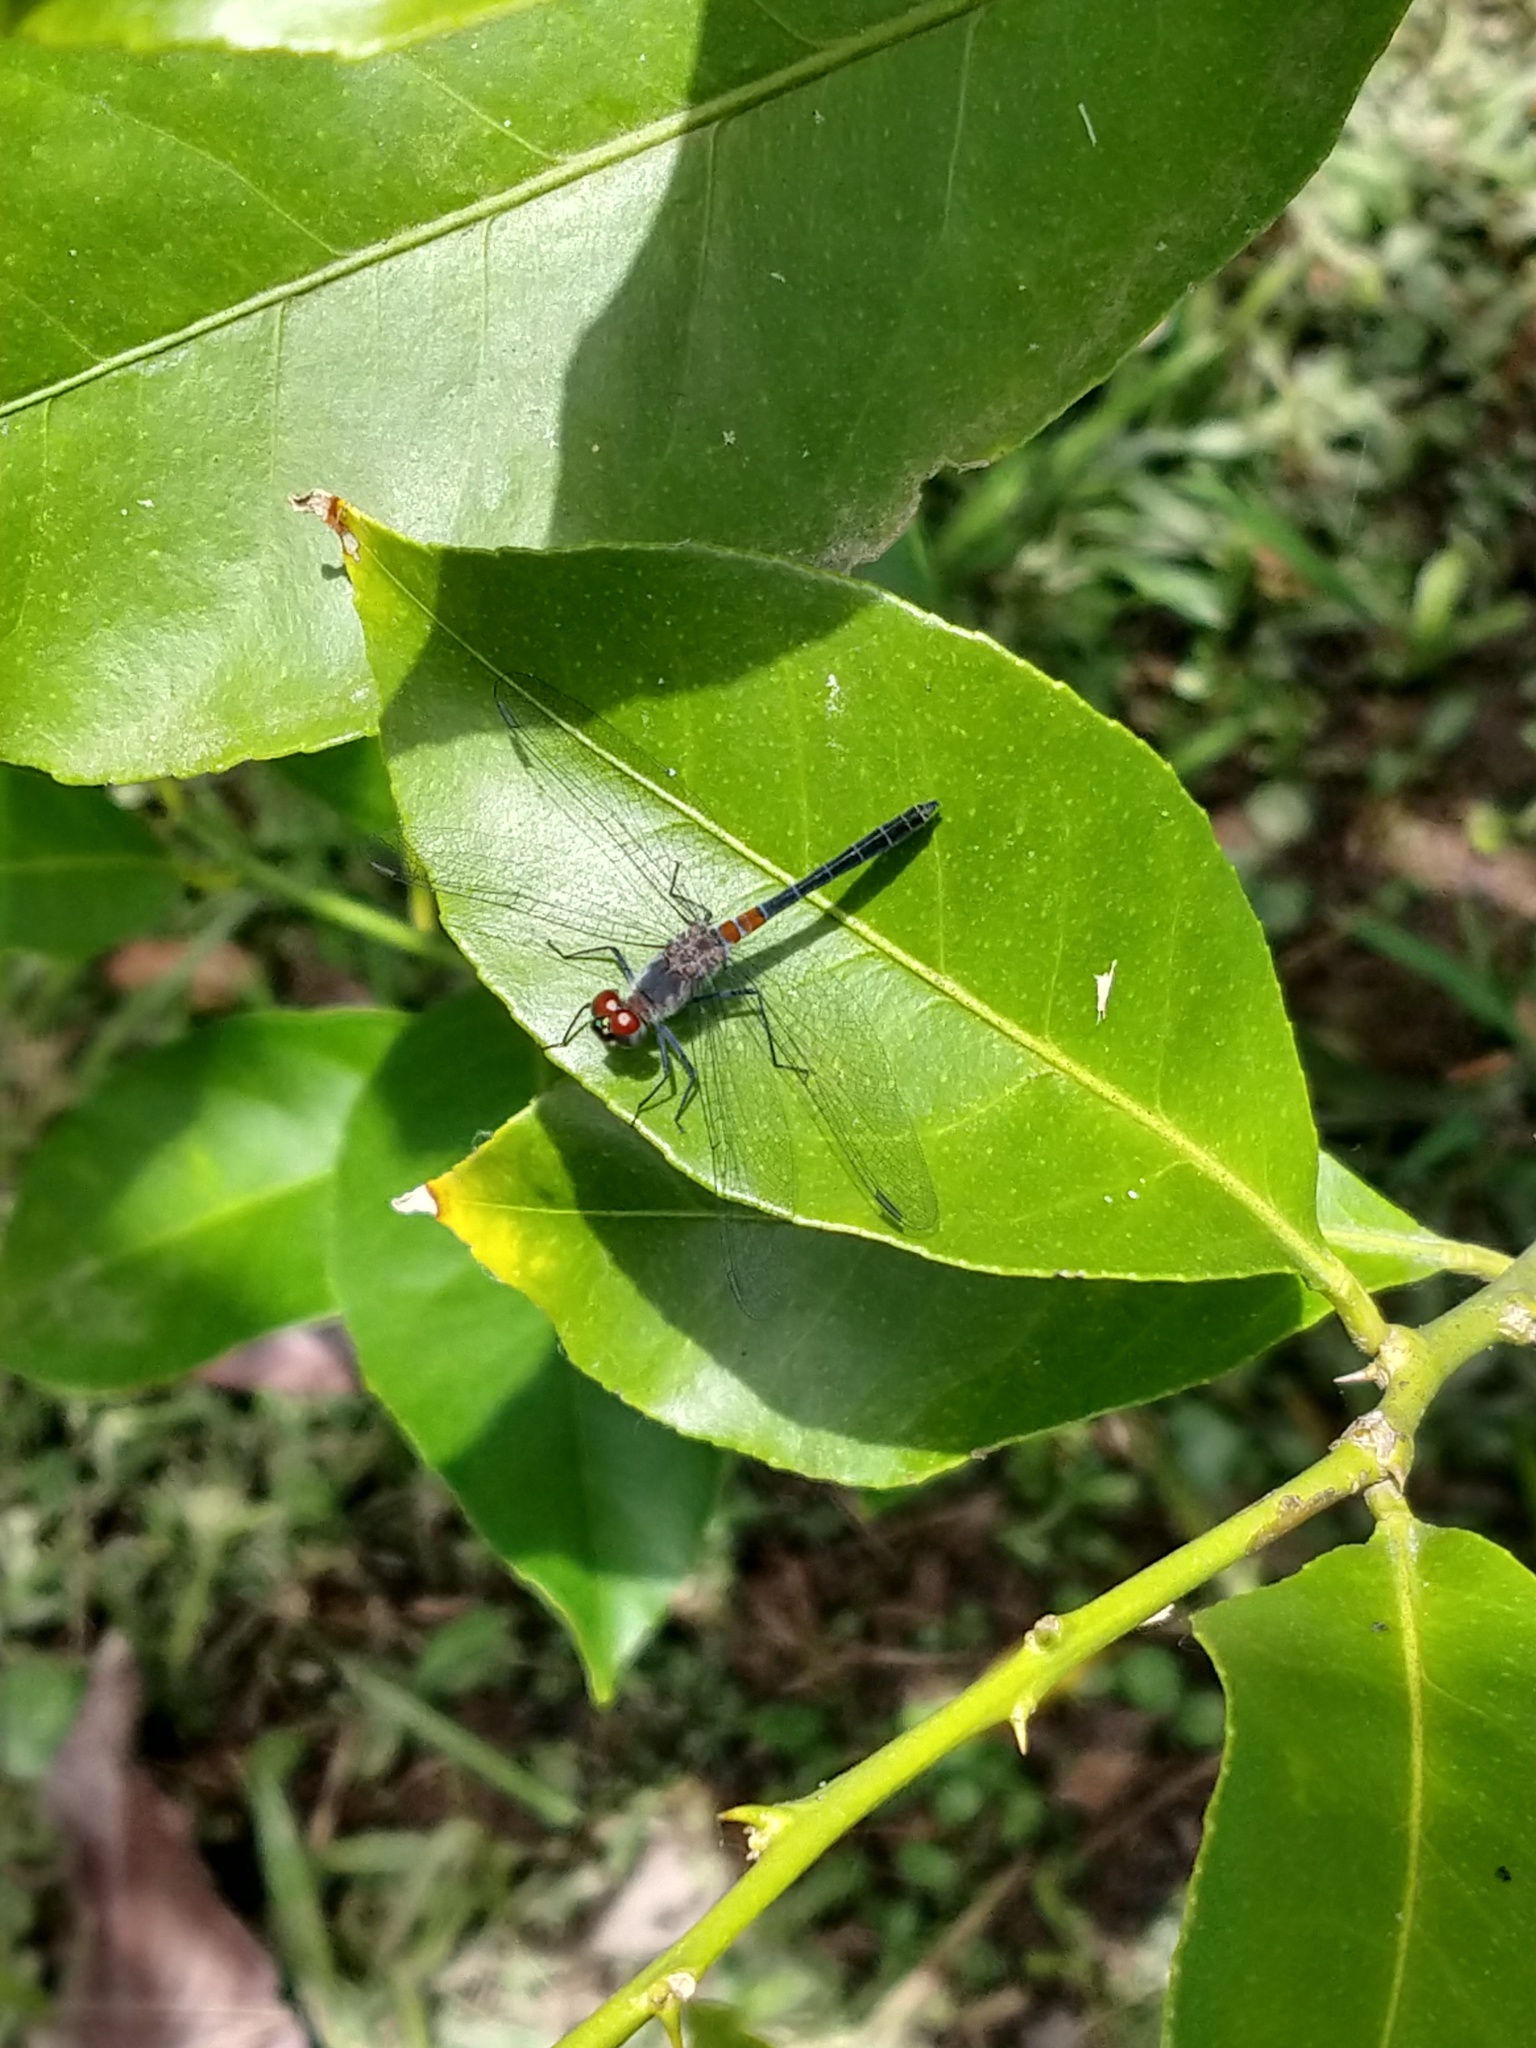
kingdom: Animalia
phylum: Arthropoda
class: Insecta
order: Odonata
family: Libellulidae
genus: Oligoclada
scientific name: Oligoclada rubribasalis
